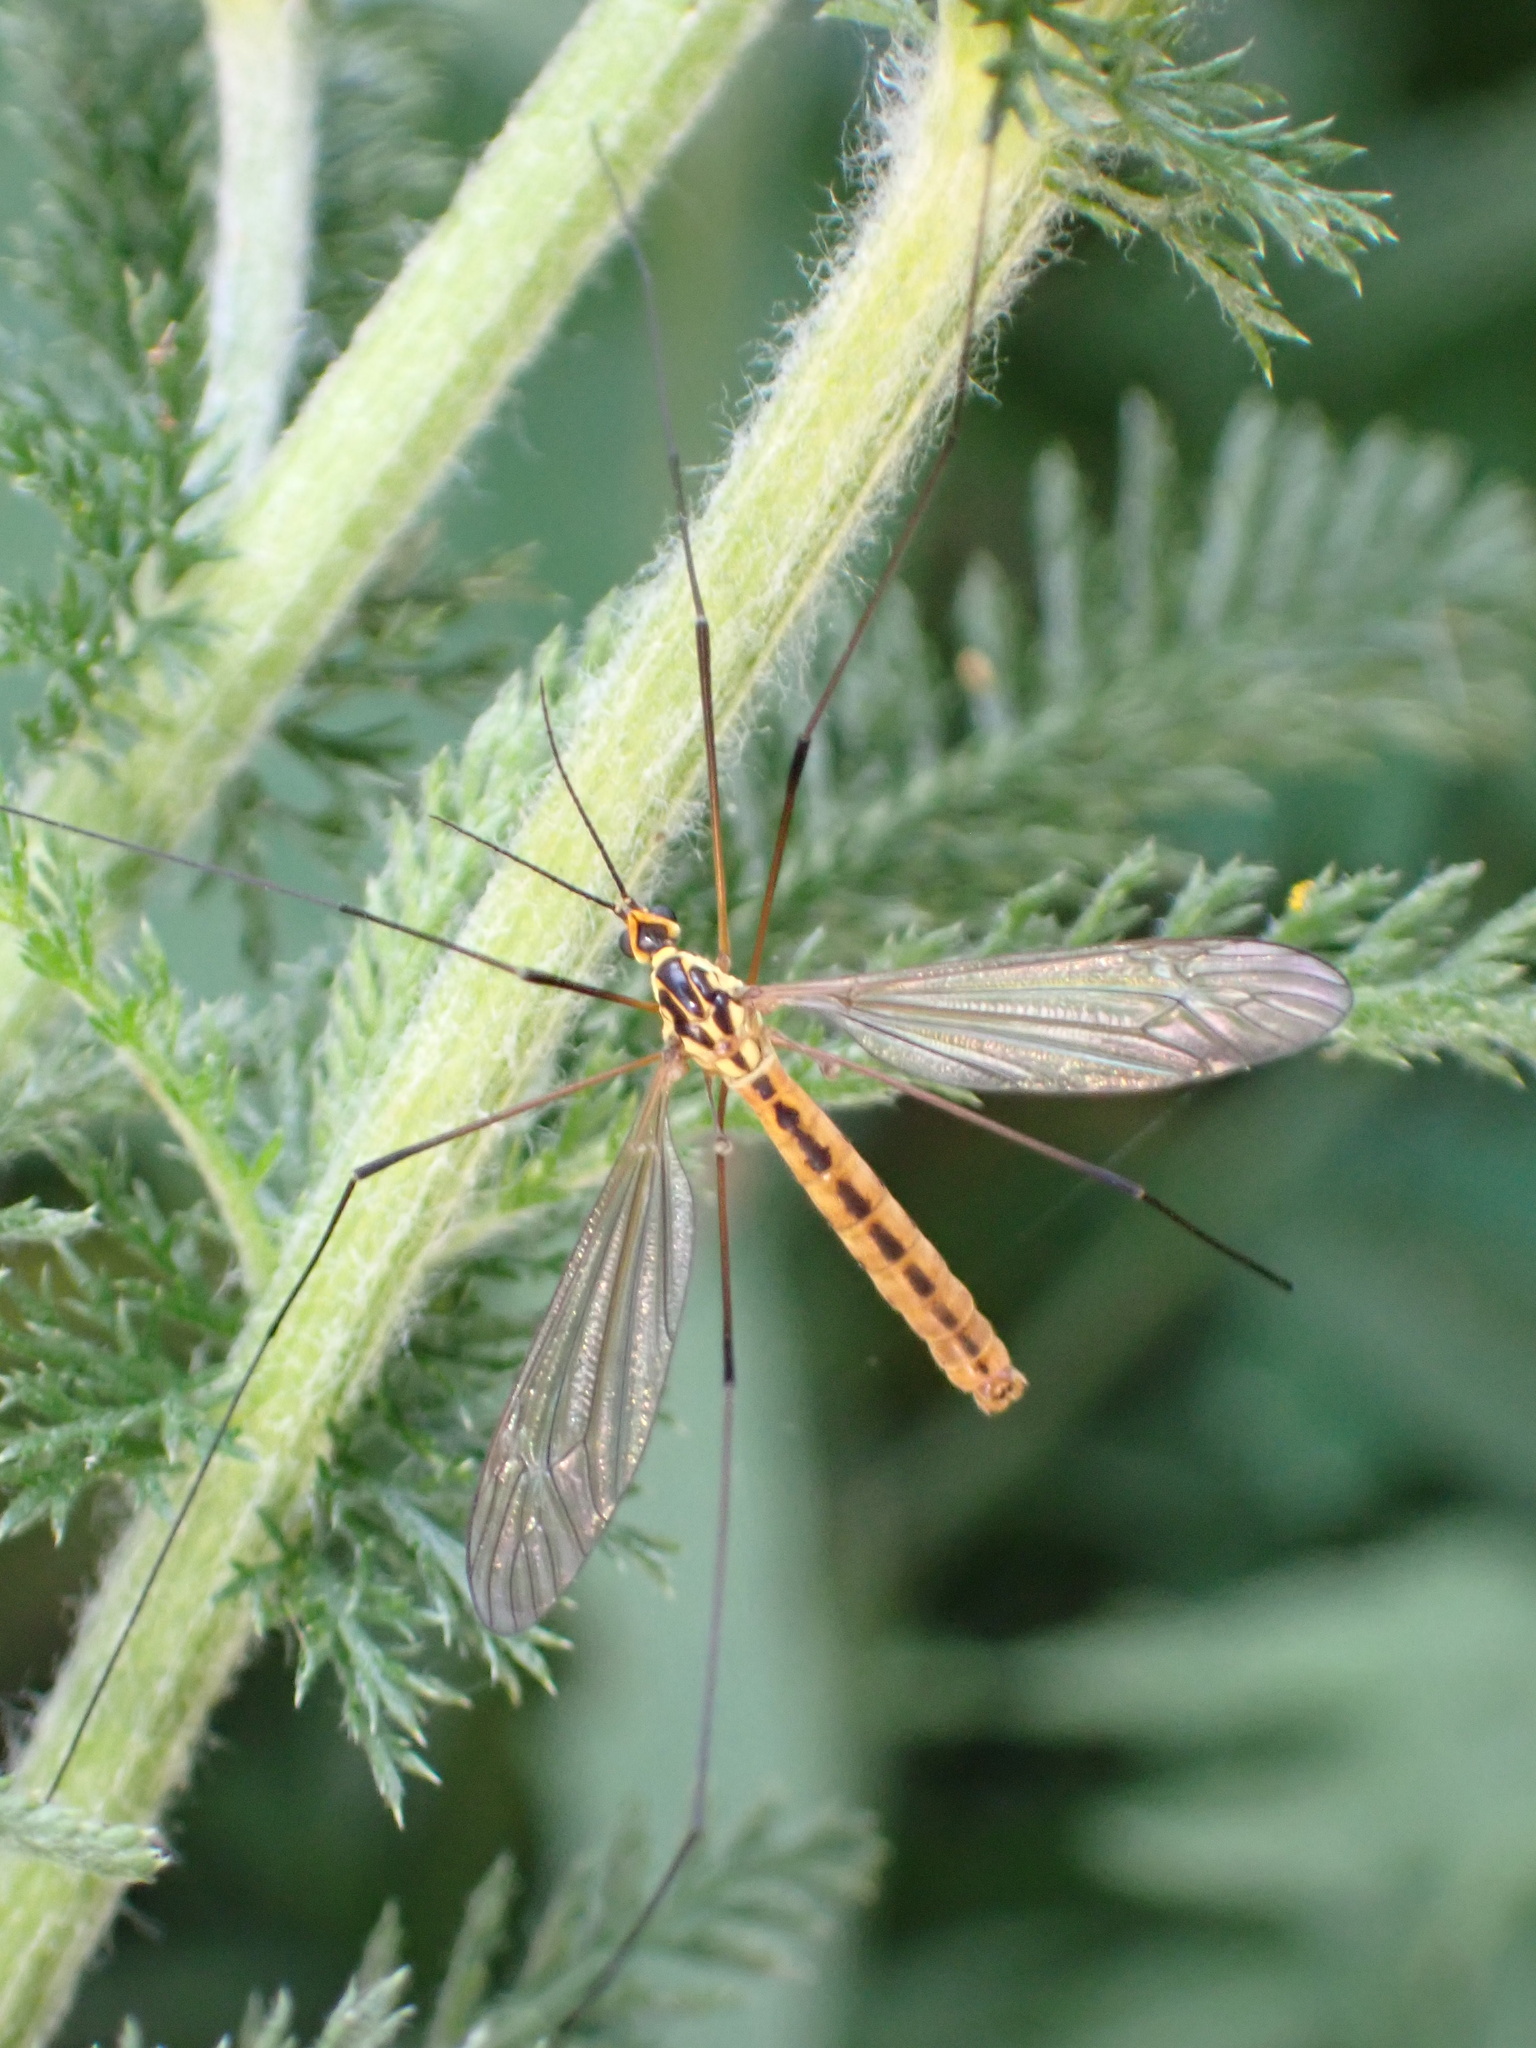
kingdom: Animalia
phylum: Arthropoda
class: Insecta
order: Diptera
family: Tipulidae
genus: Nephrotoma
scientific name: Nephrotoma flavescens
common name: Tiger cranefly
